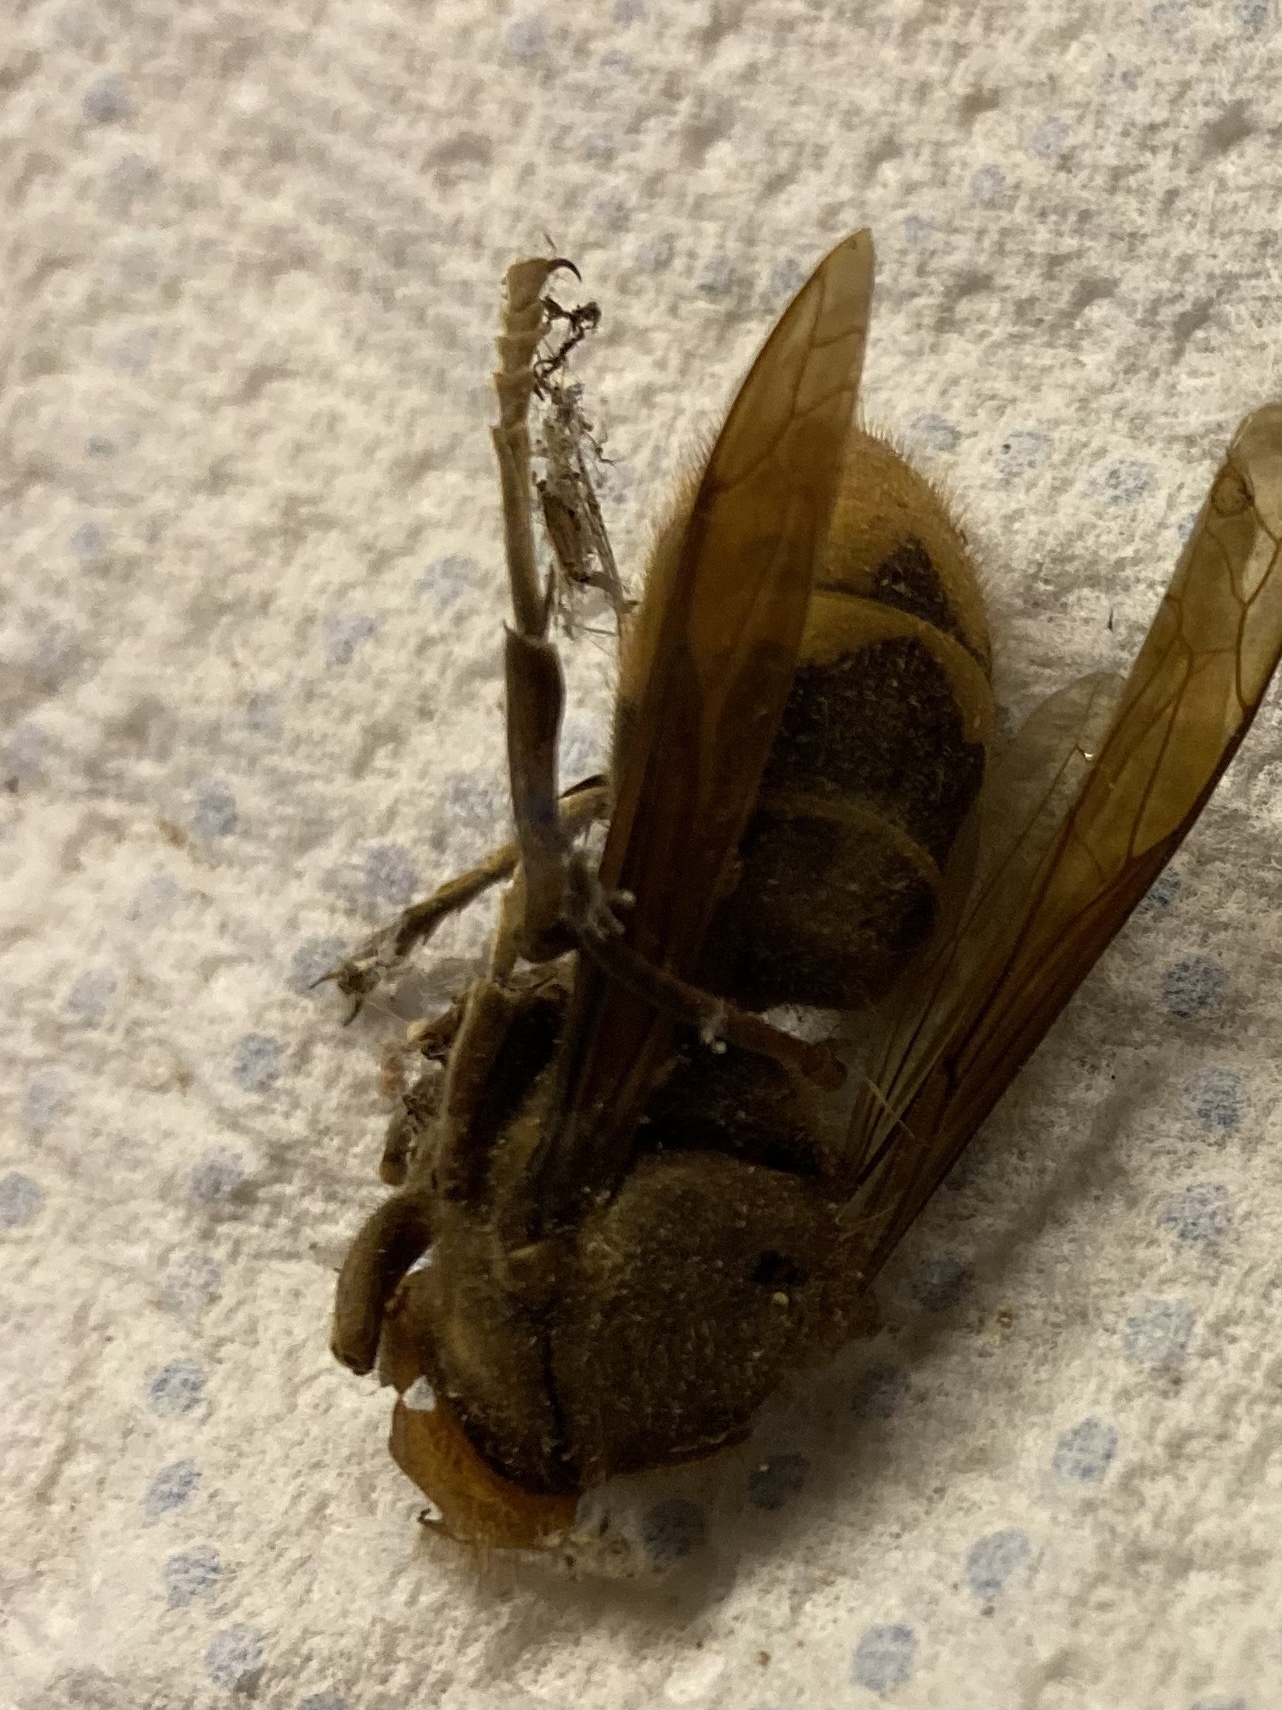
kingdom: Animalia
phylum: Arthropoda
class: Insecta
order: Hymenoptera
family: Vespidae
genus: Vespa
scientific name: Vespa crabro
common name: Hornet
